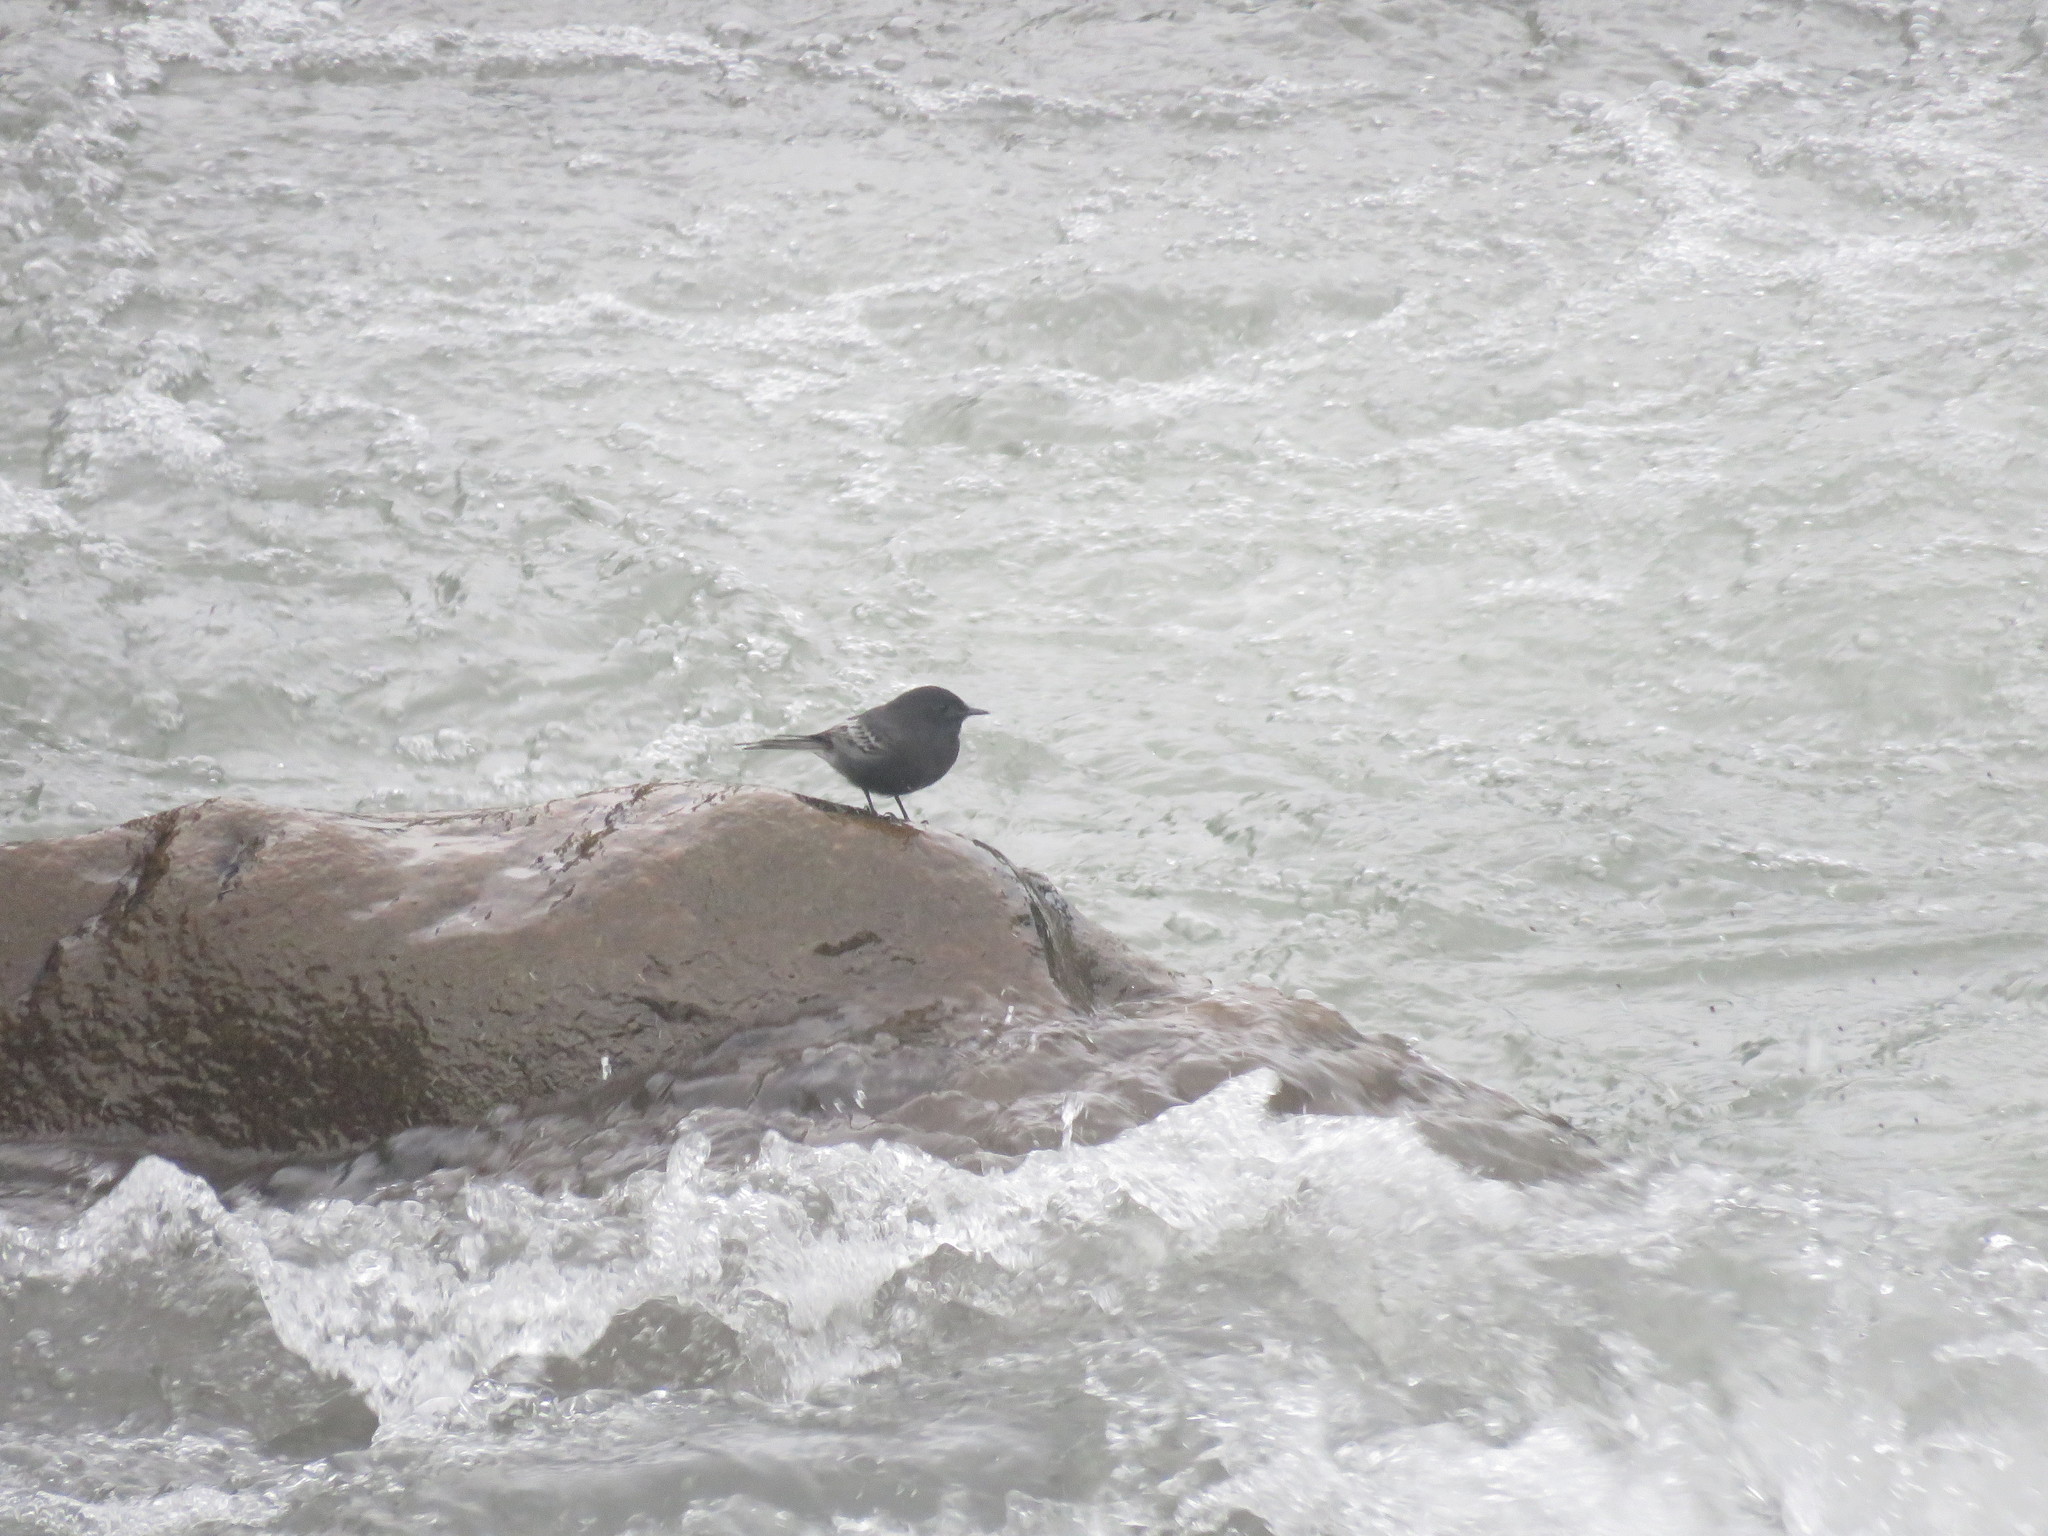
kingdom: Animalia
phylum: Chordata
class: Aves
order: Passeriformes
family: Tyrannidae
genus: Sayornis
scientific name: Sayornis nigricans
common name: Black phoebe
